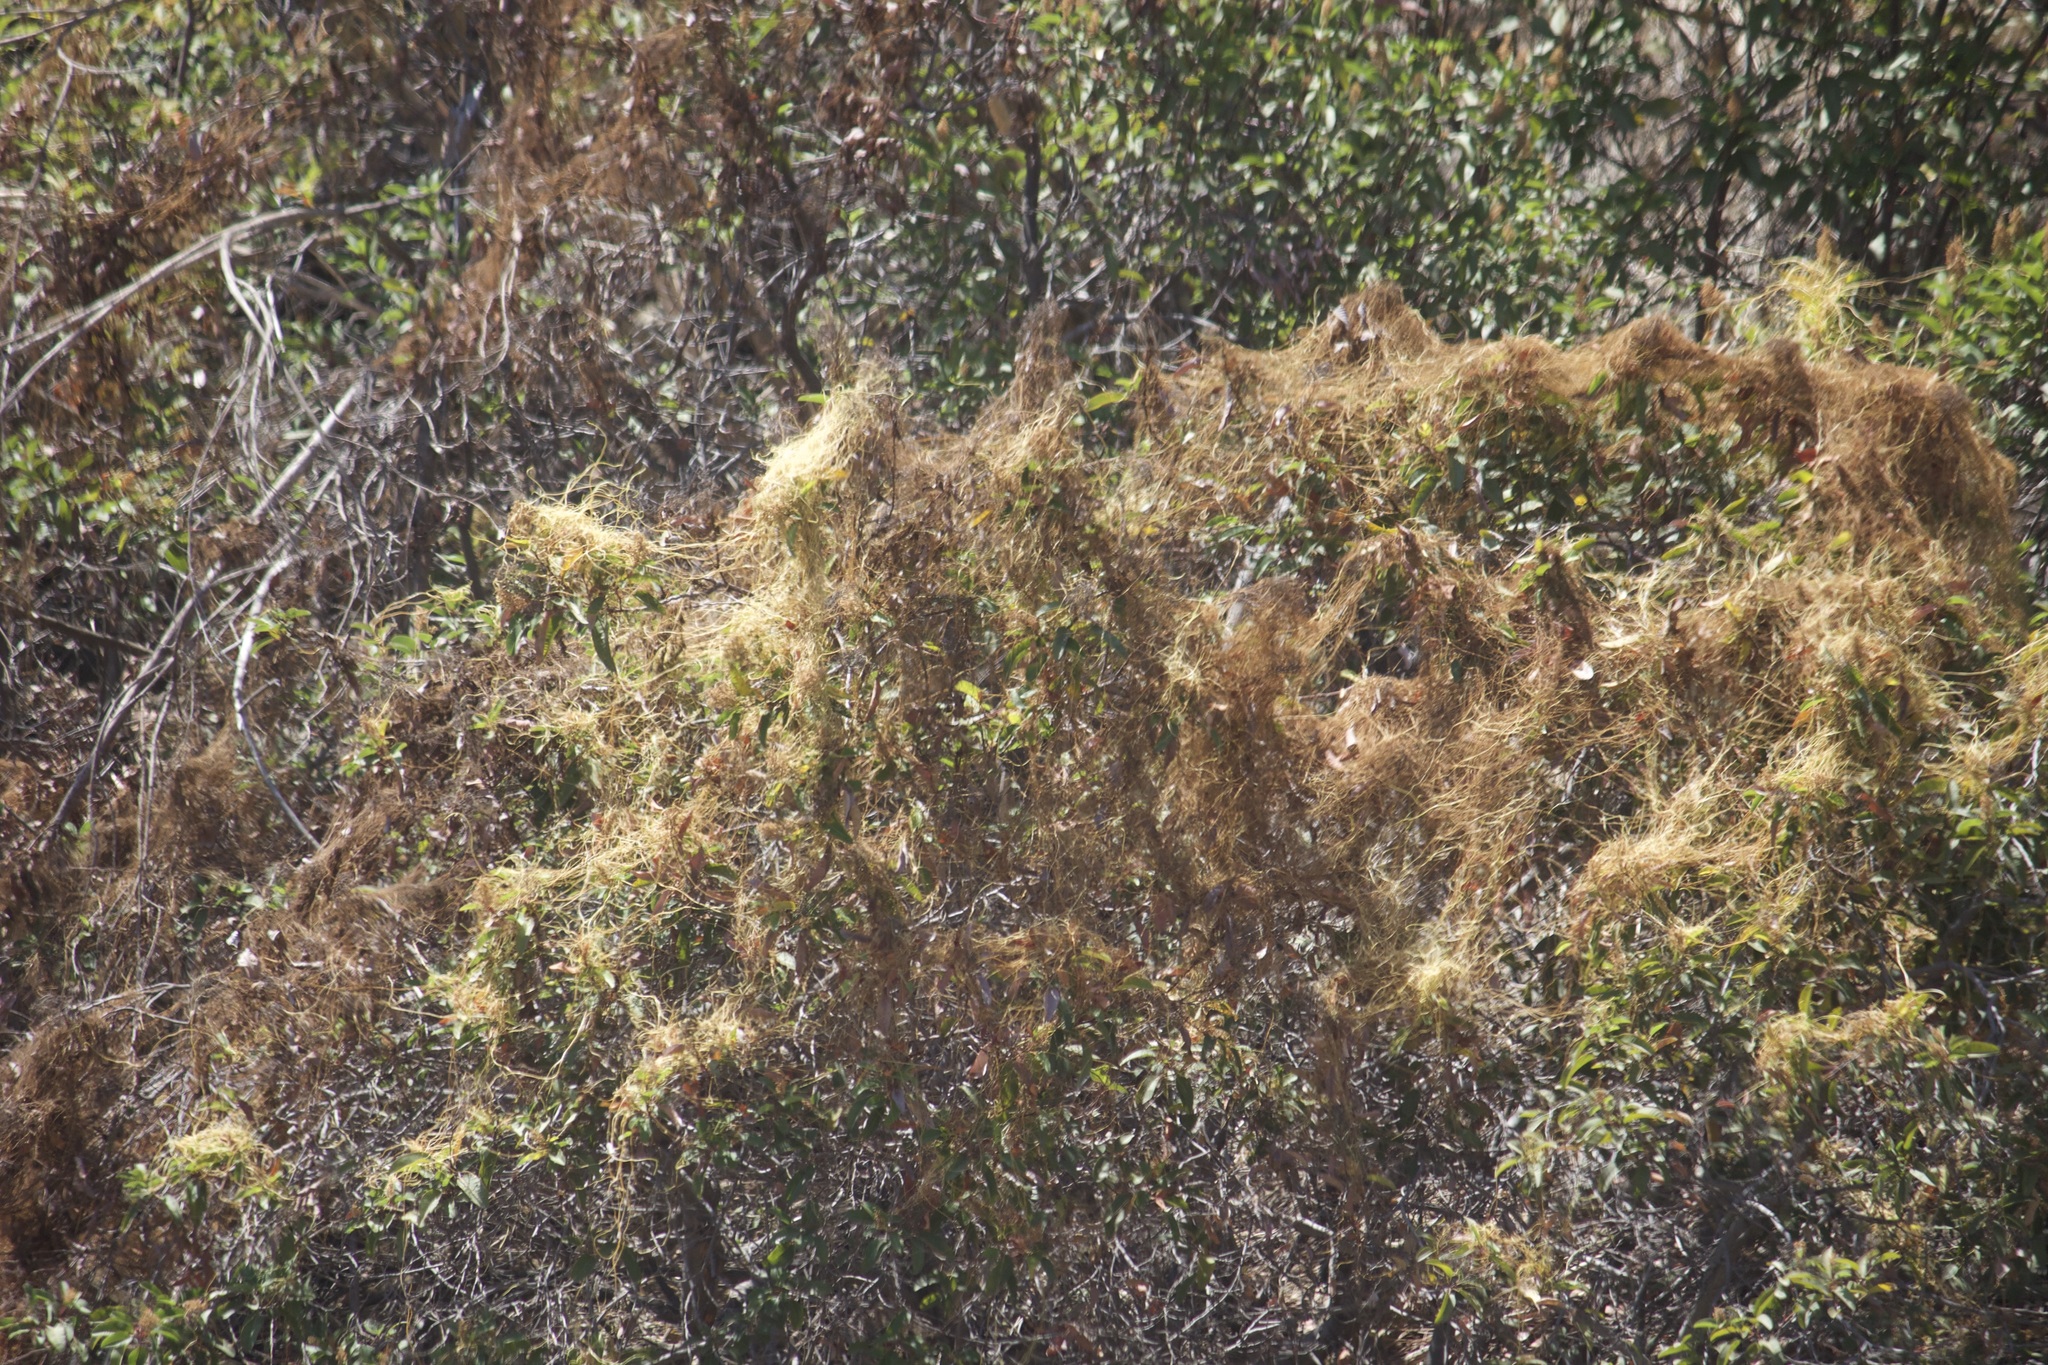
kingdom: Plantae
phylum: Tracheophyta
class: Magnoliopsida
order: Solanales
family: Convolvulaceae
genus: Cuscuta
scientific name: Cuscuta subinclusa
